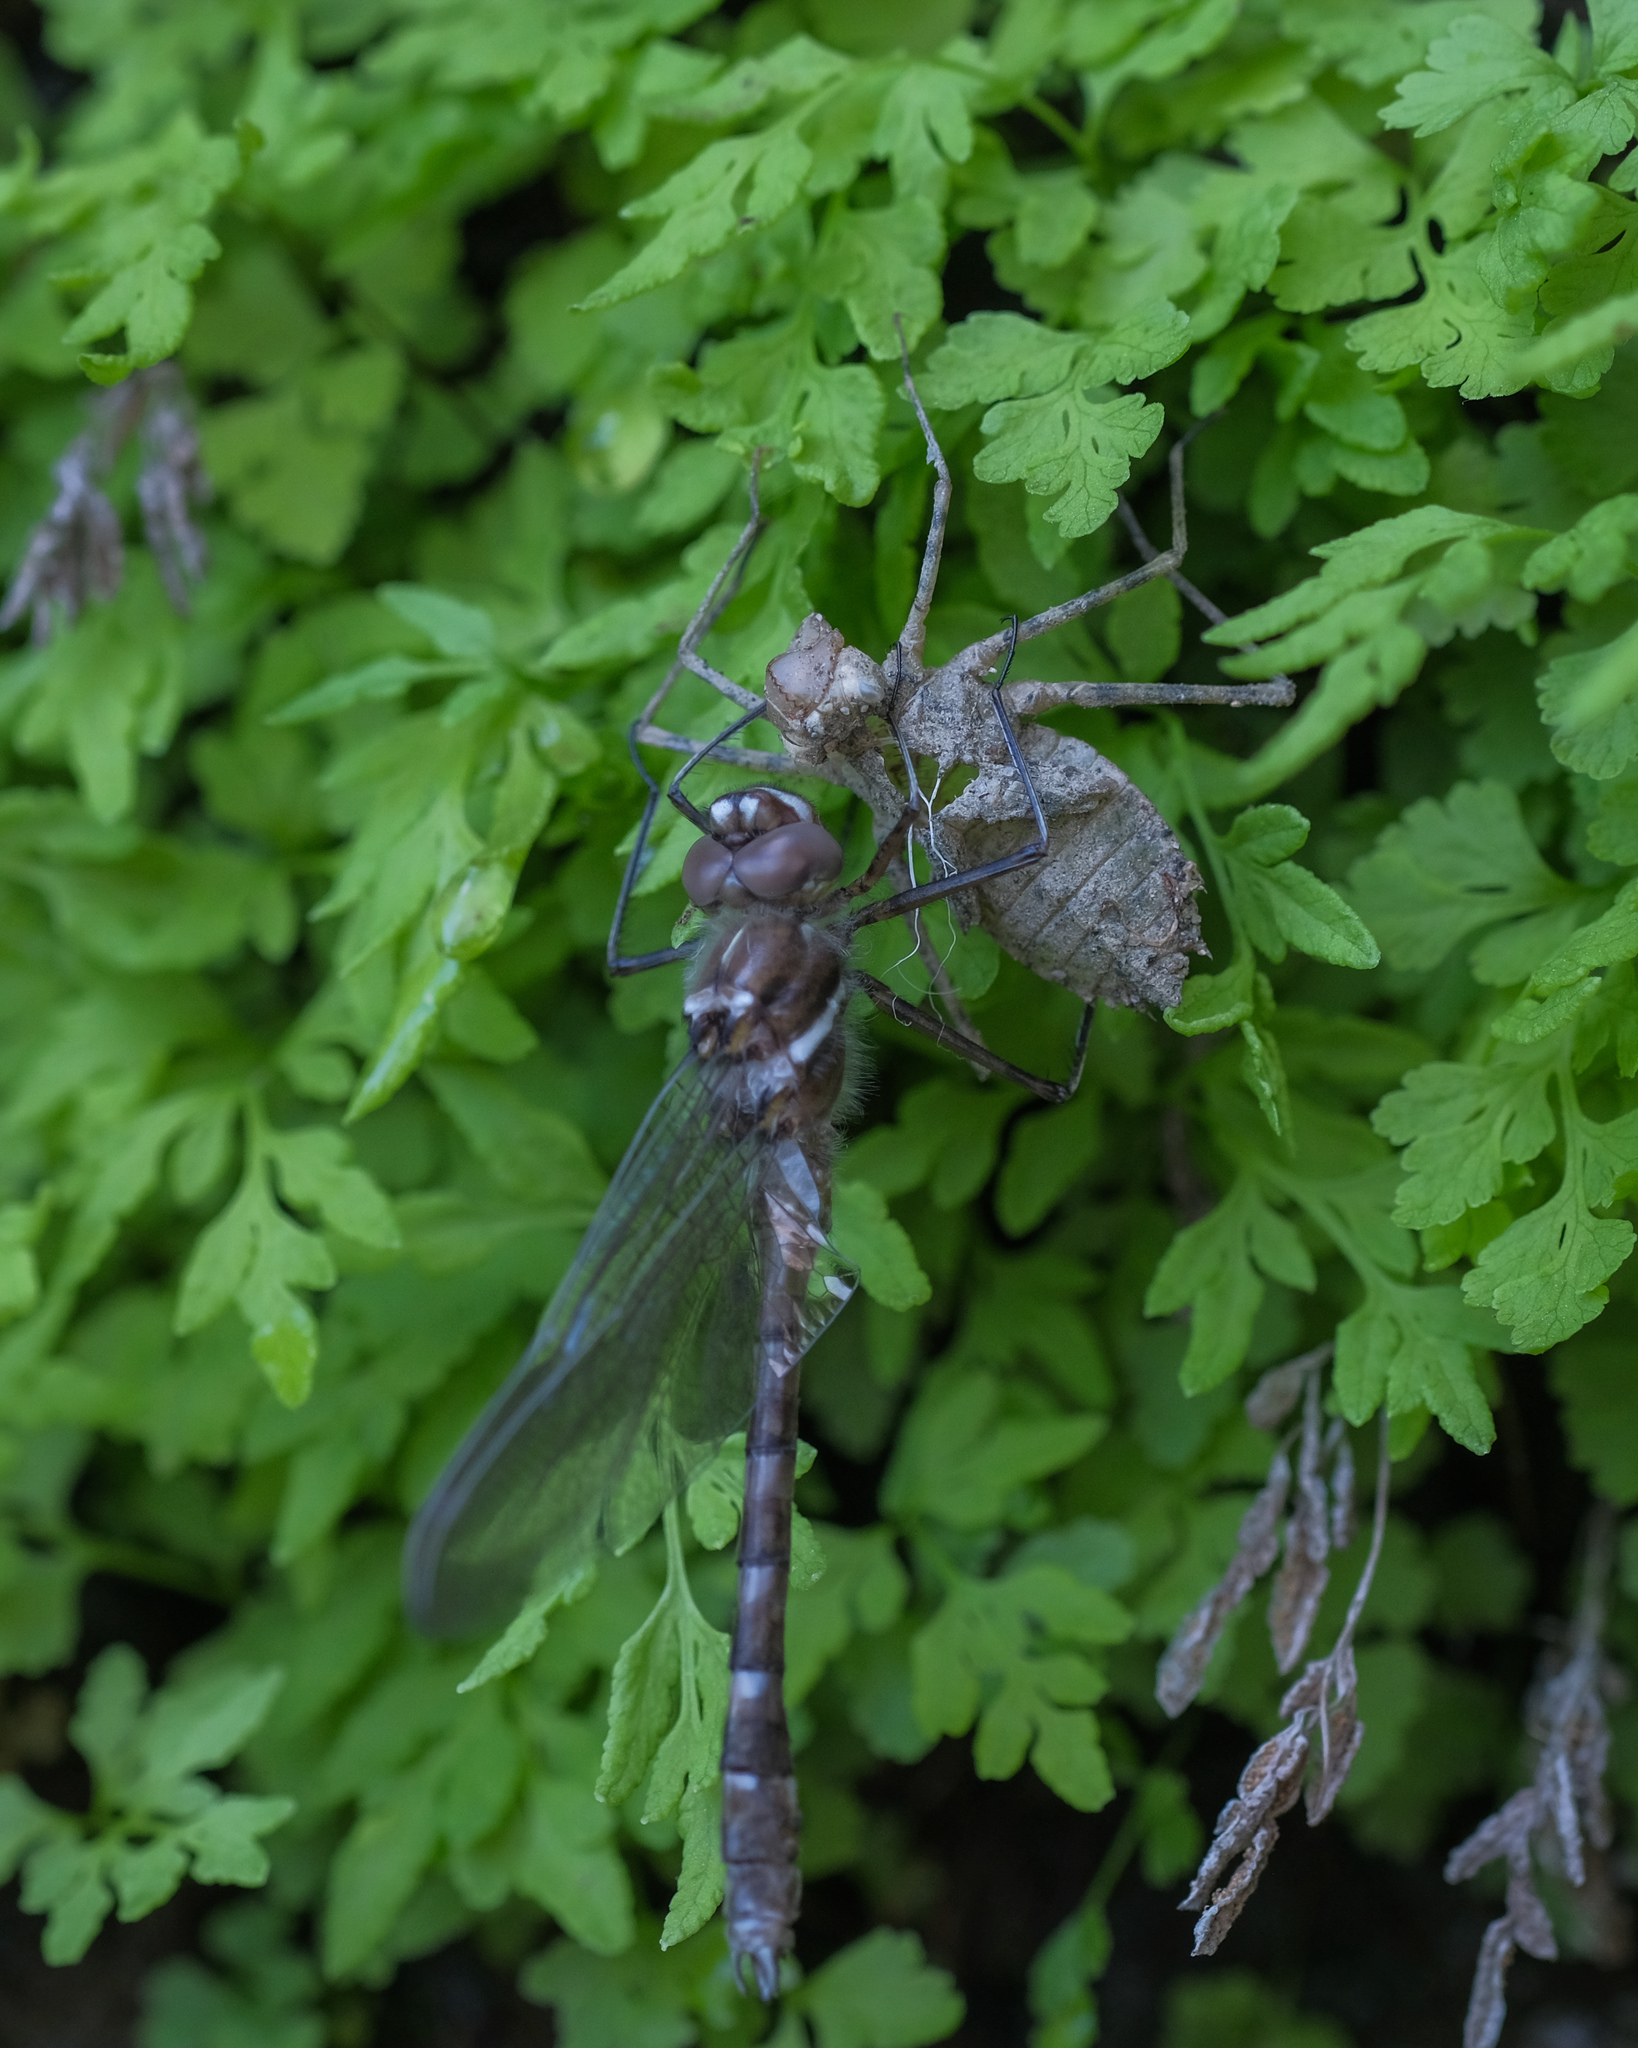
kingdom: Animalia
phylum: Arthropoda
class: Insecta
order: Odonata
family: Macromiidae
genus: Didymops
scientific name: Didymops transversa
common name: Stream cruiser
